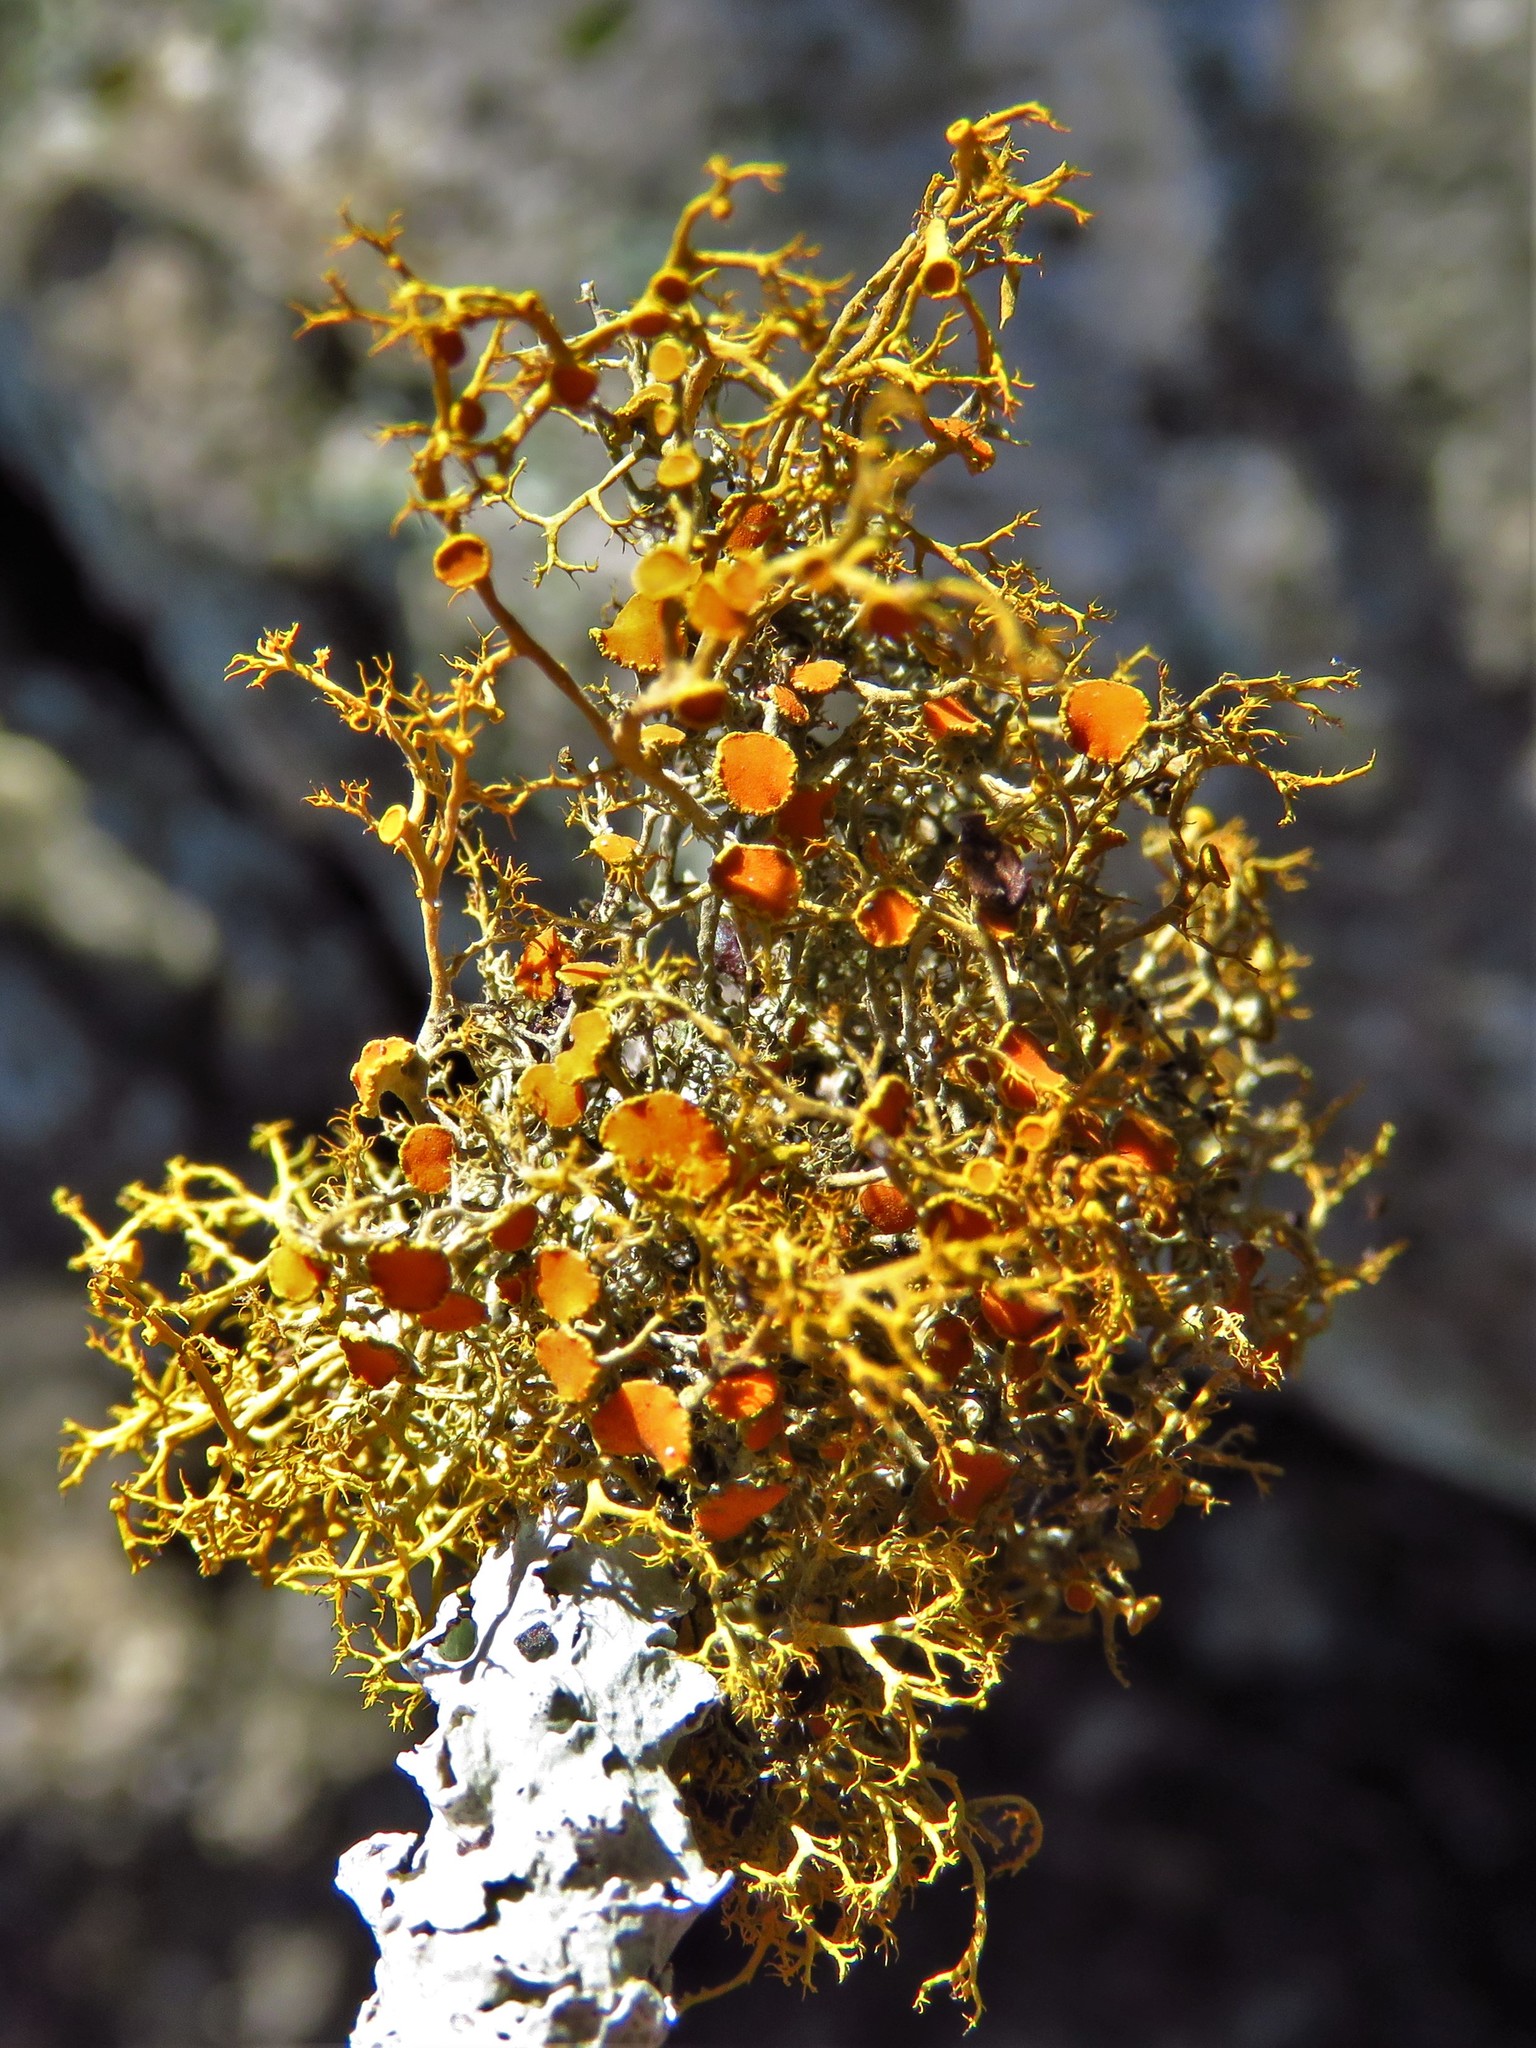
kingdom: Fungi
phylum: Ascomycota
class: Lecanoromycetes
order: Teloschistales
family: Teloschistaceae
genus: Teloschistes
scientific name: Teloschistes exilis
